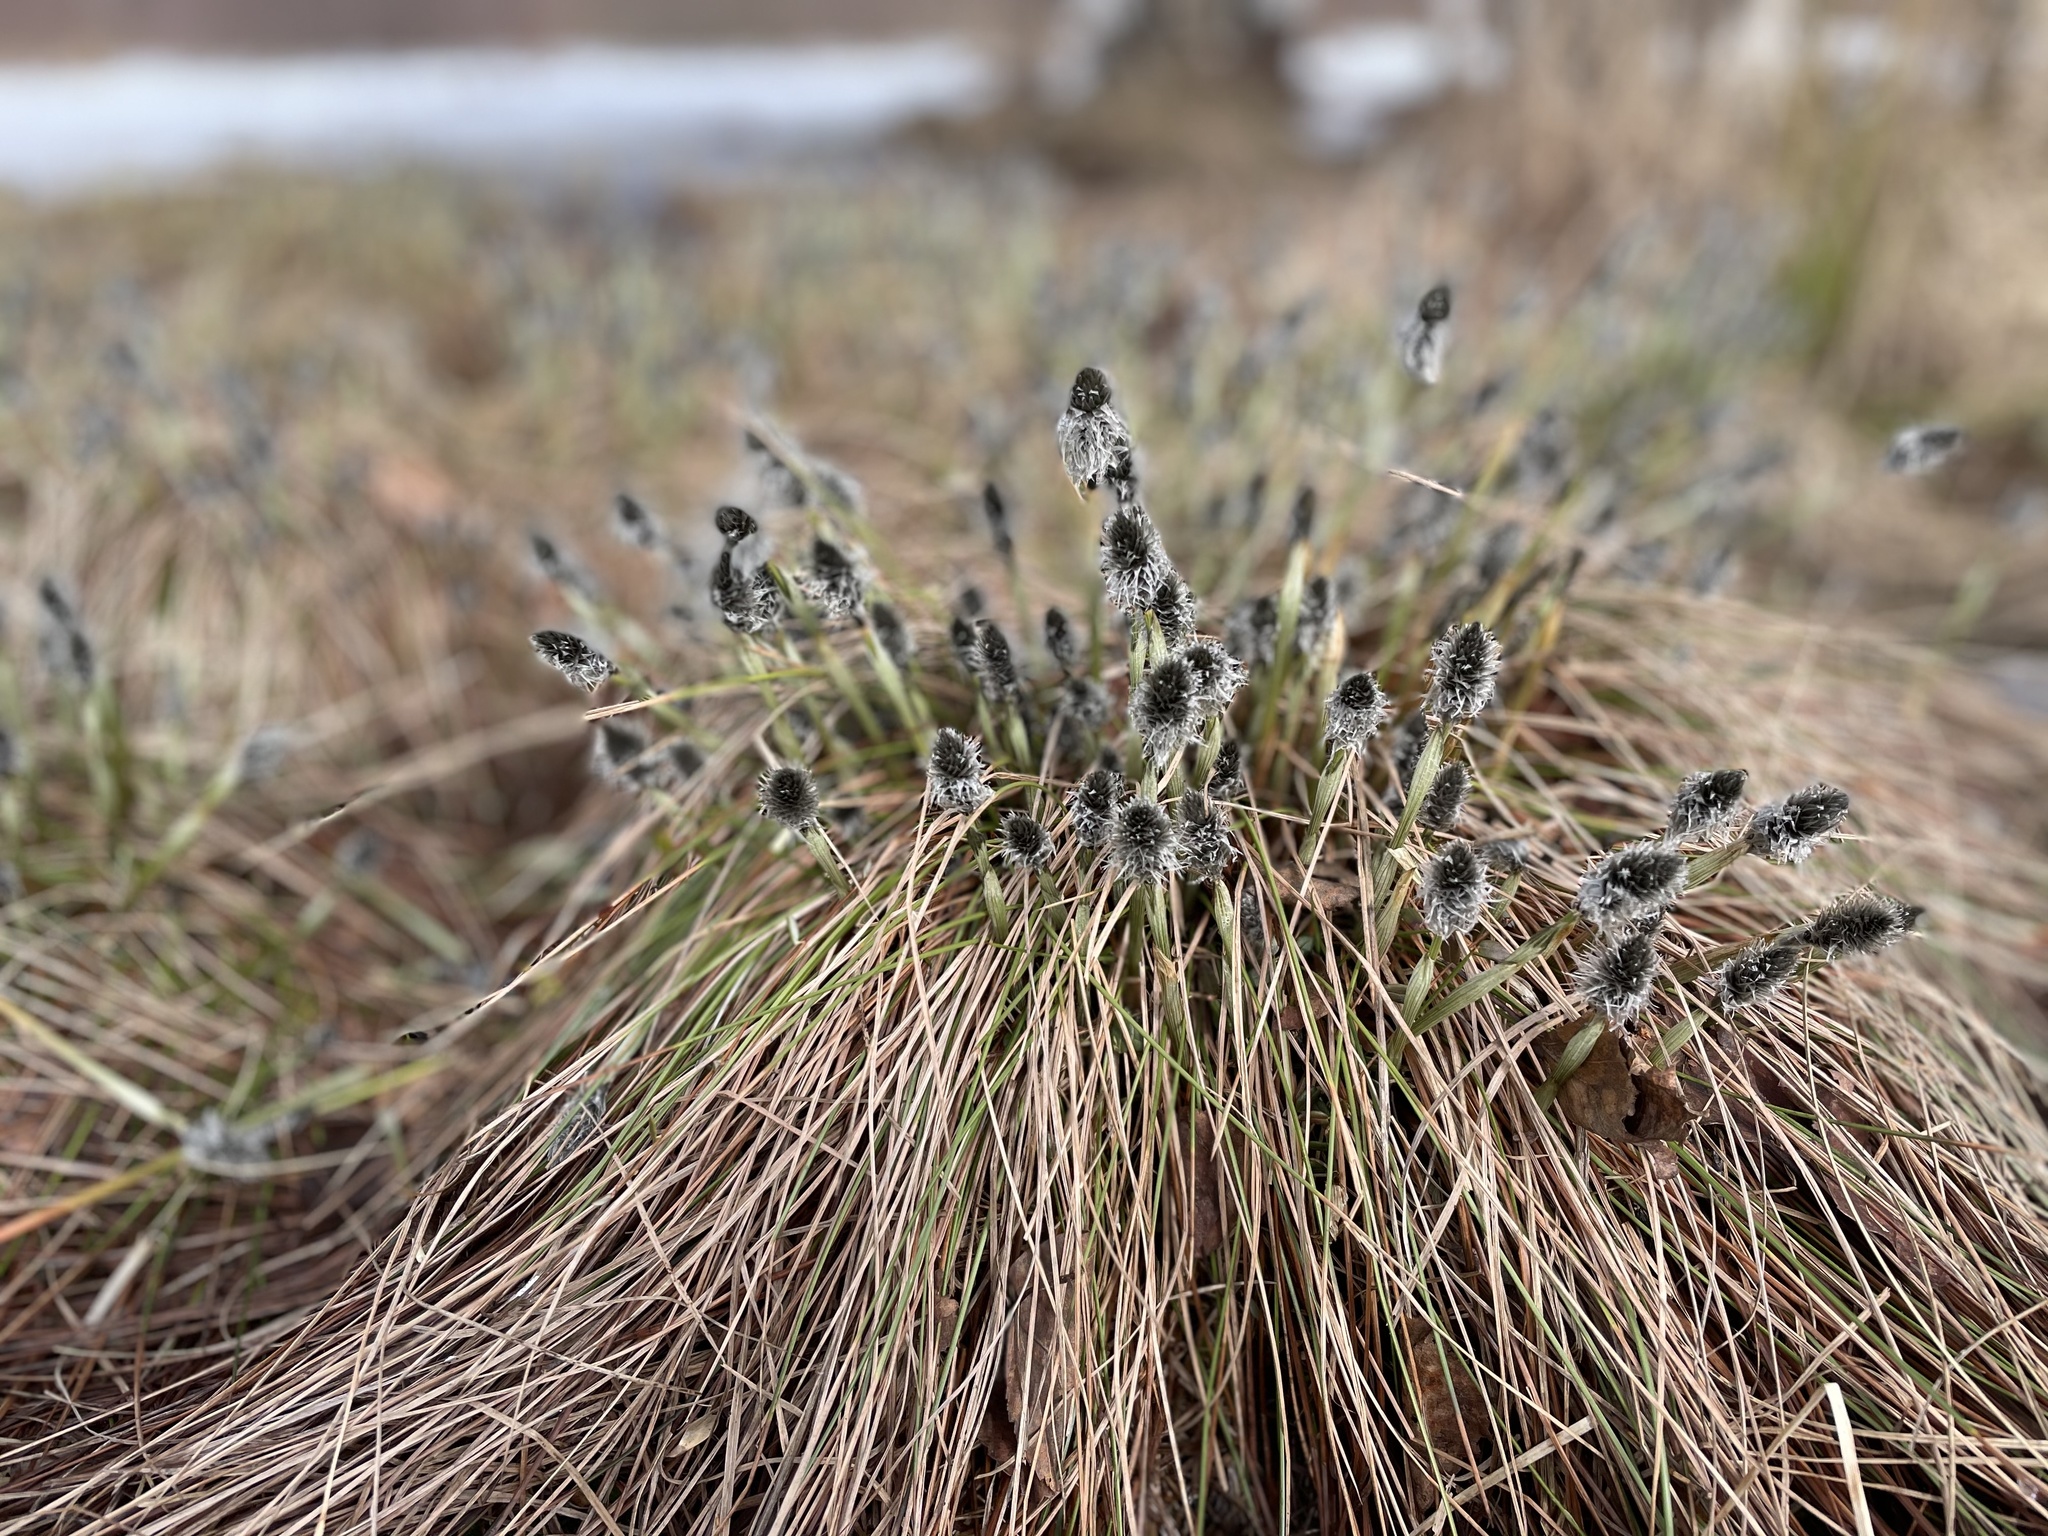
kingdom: Plantae
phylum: Tracheophyta
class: Liliopsida
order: Poales
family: Cyperaceae
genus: Eriophorum
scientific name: Eriophorum vaginatum
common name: Hare's-tail cottongrass
